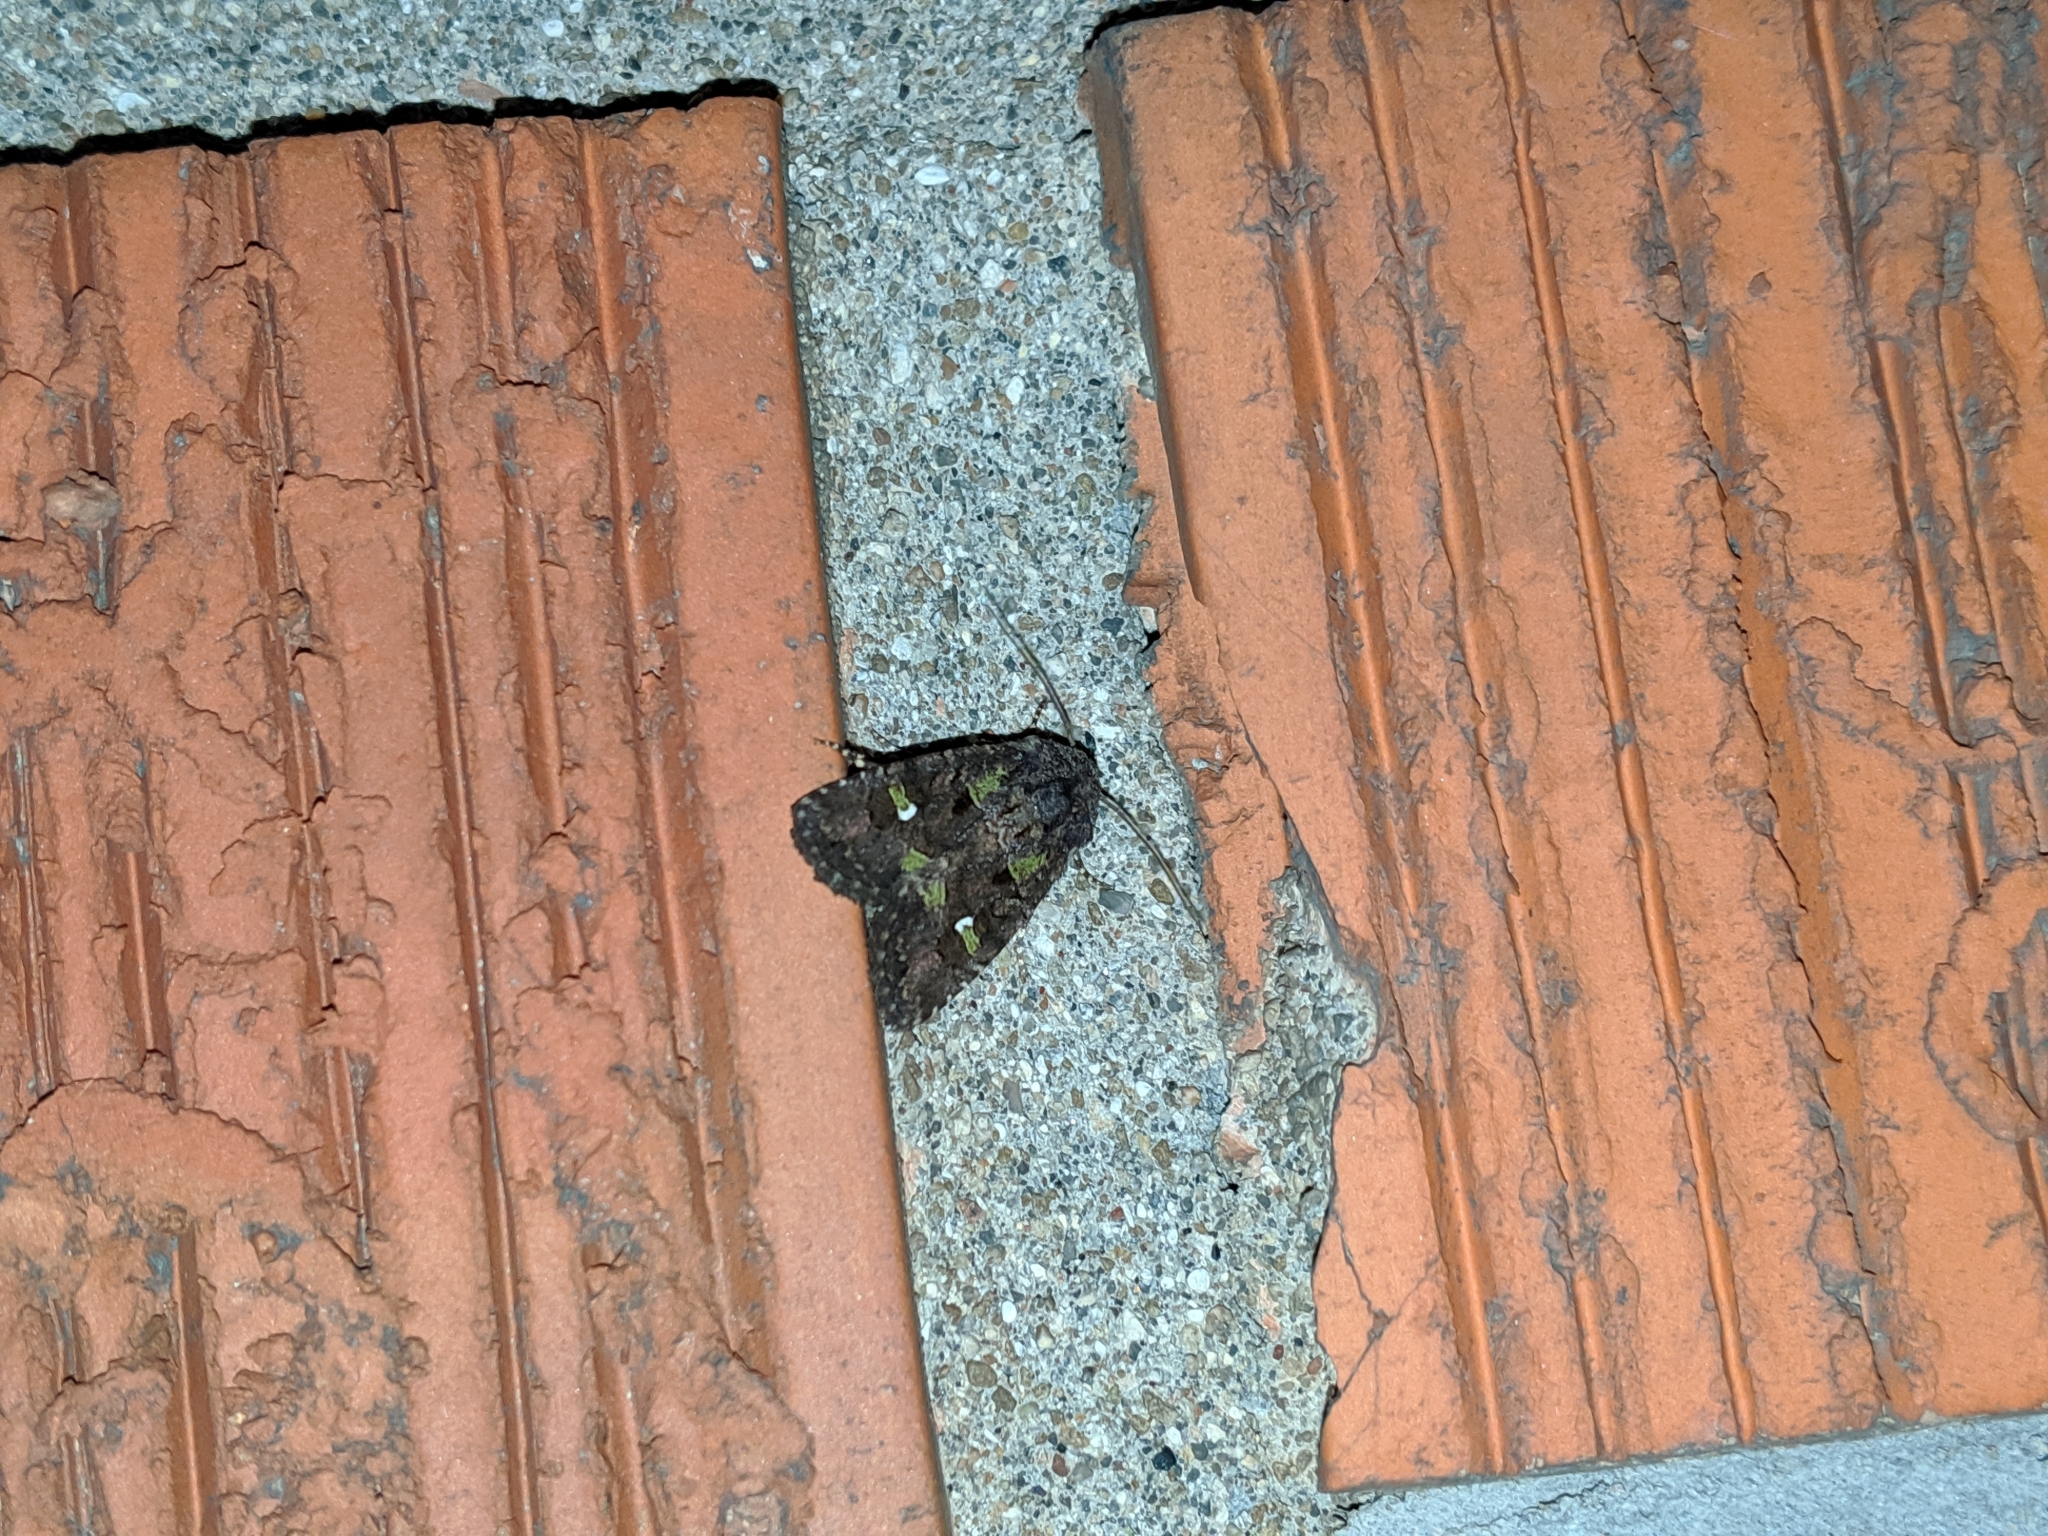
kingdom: Animalia
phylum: Arthropoda
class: Insecta
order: Lepidoptera
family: Noctuidae
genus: Lacinipolia
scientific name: Lacinipolia renigera
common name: Kidney-spotted minor
